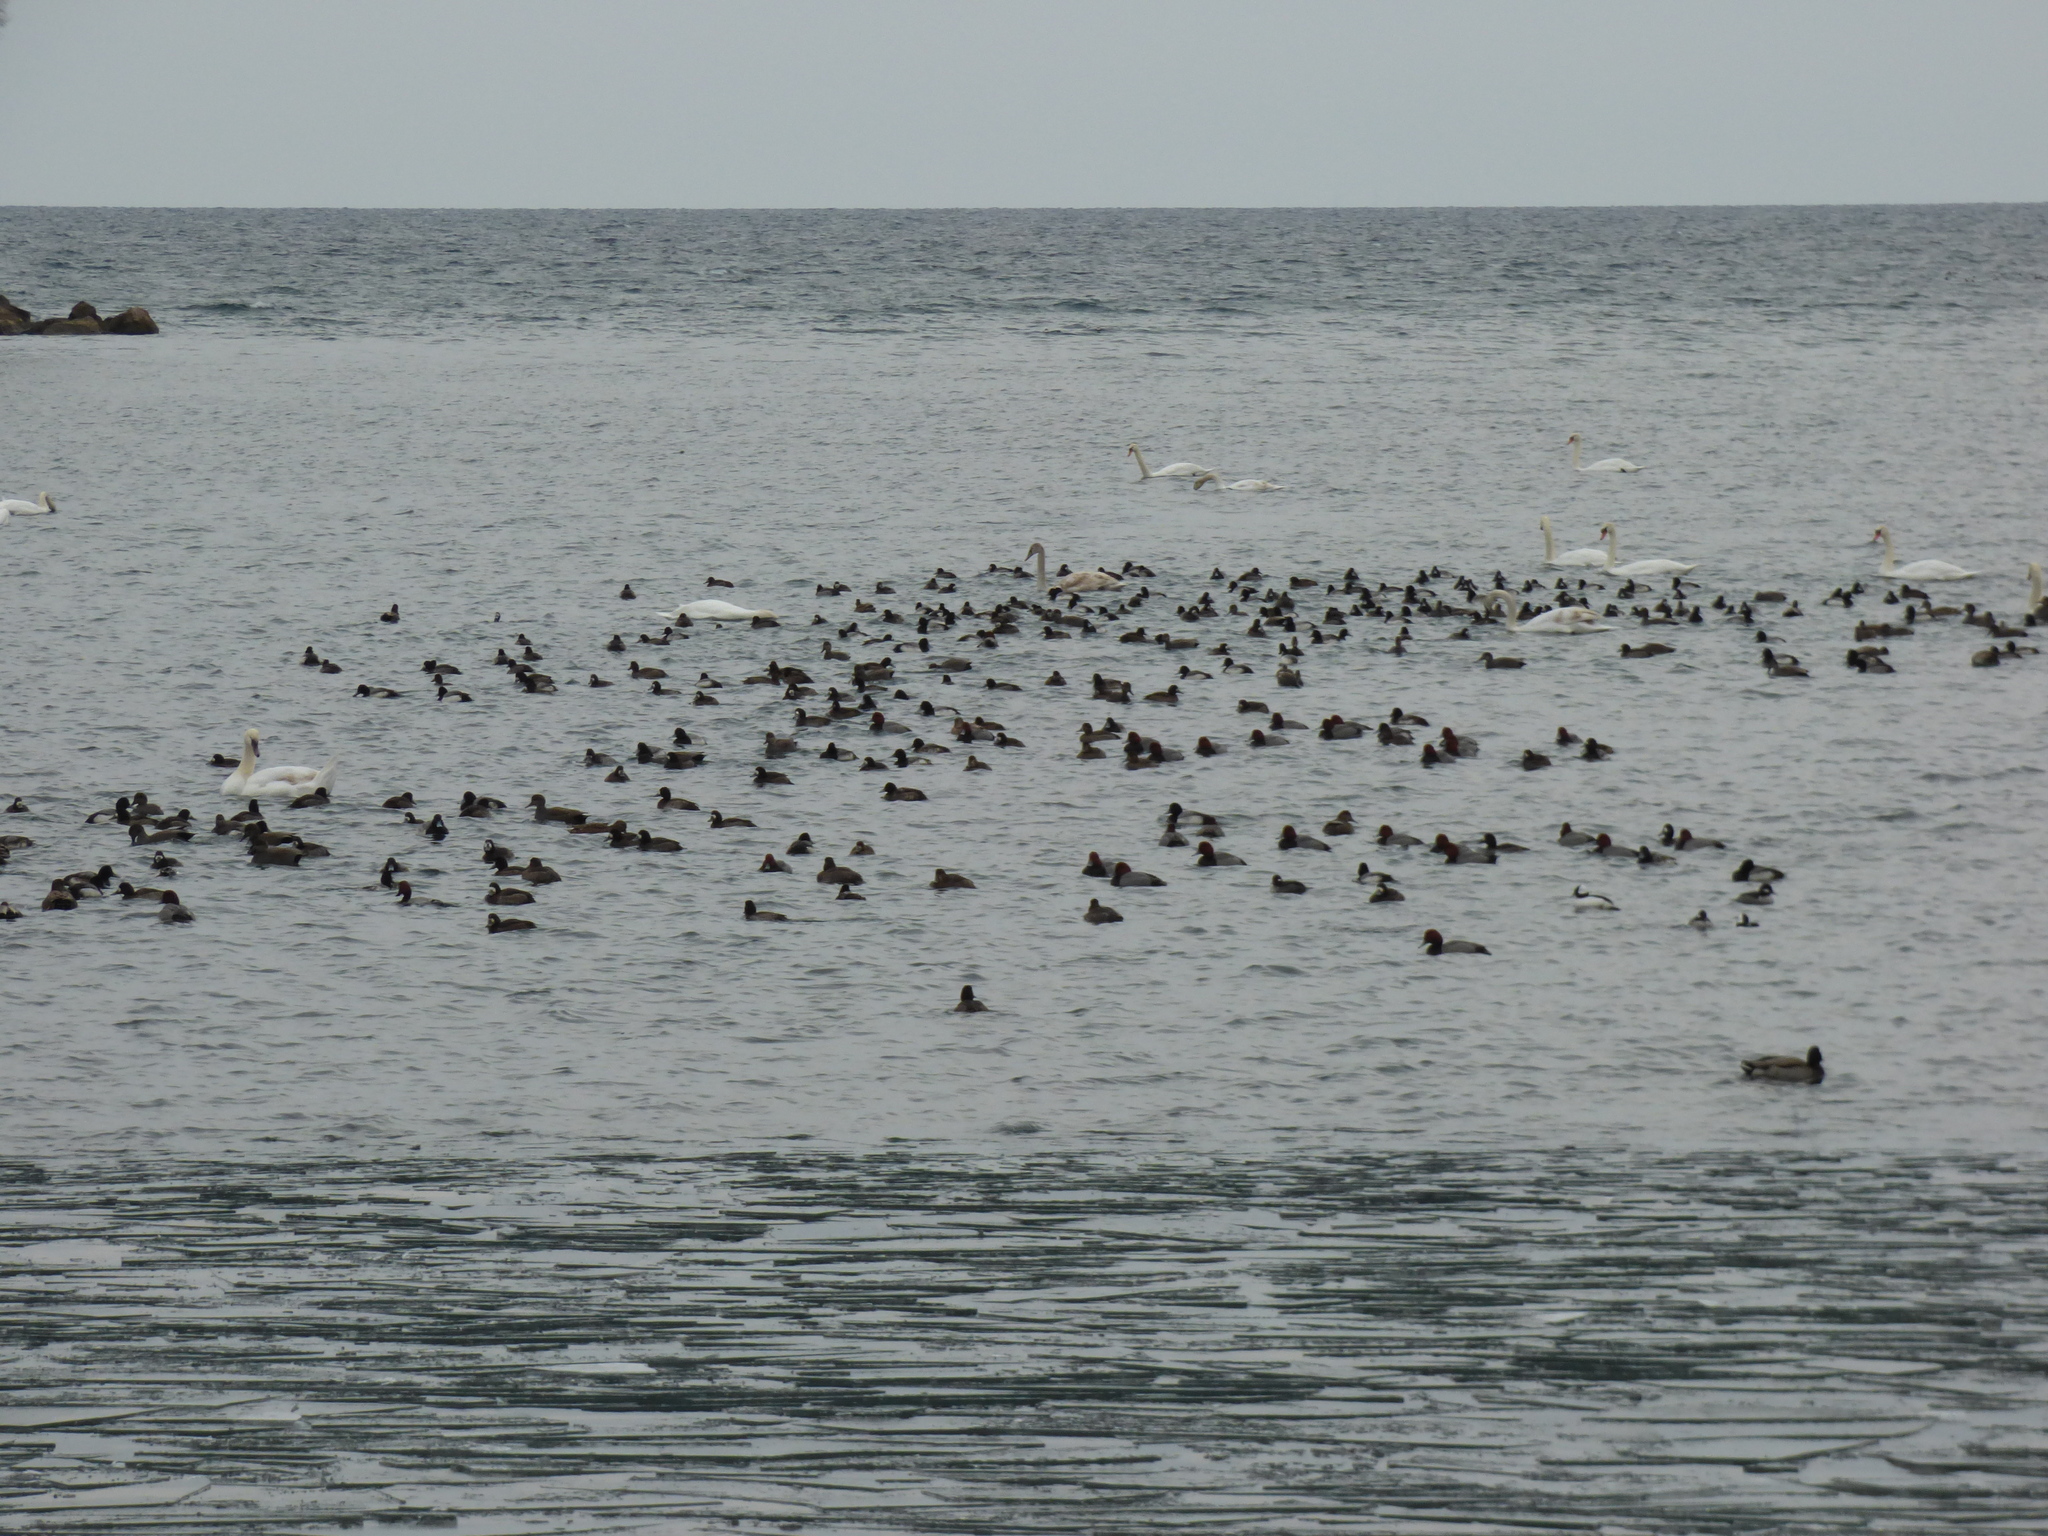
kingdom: Animalia
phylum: Chordata
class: Aves
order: Anseriformes
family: Anatidae
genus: Aythya
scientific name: Aythya americana
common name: Redhead
